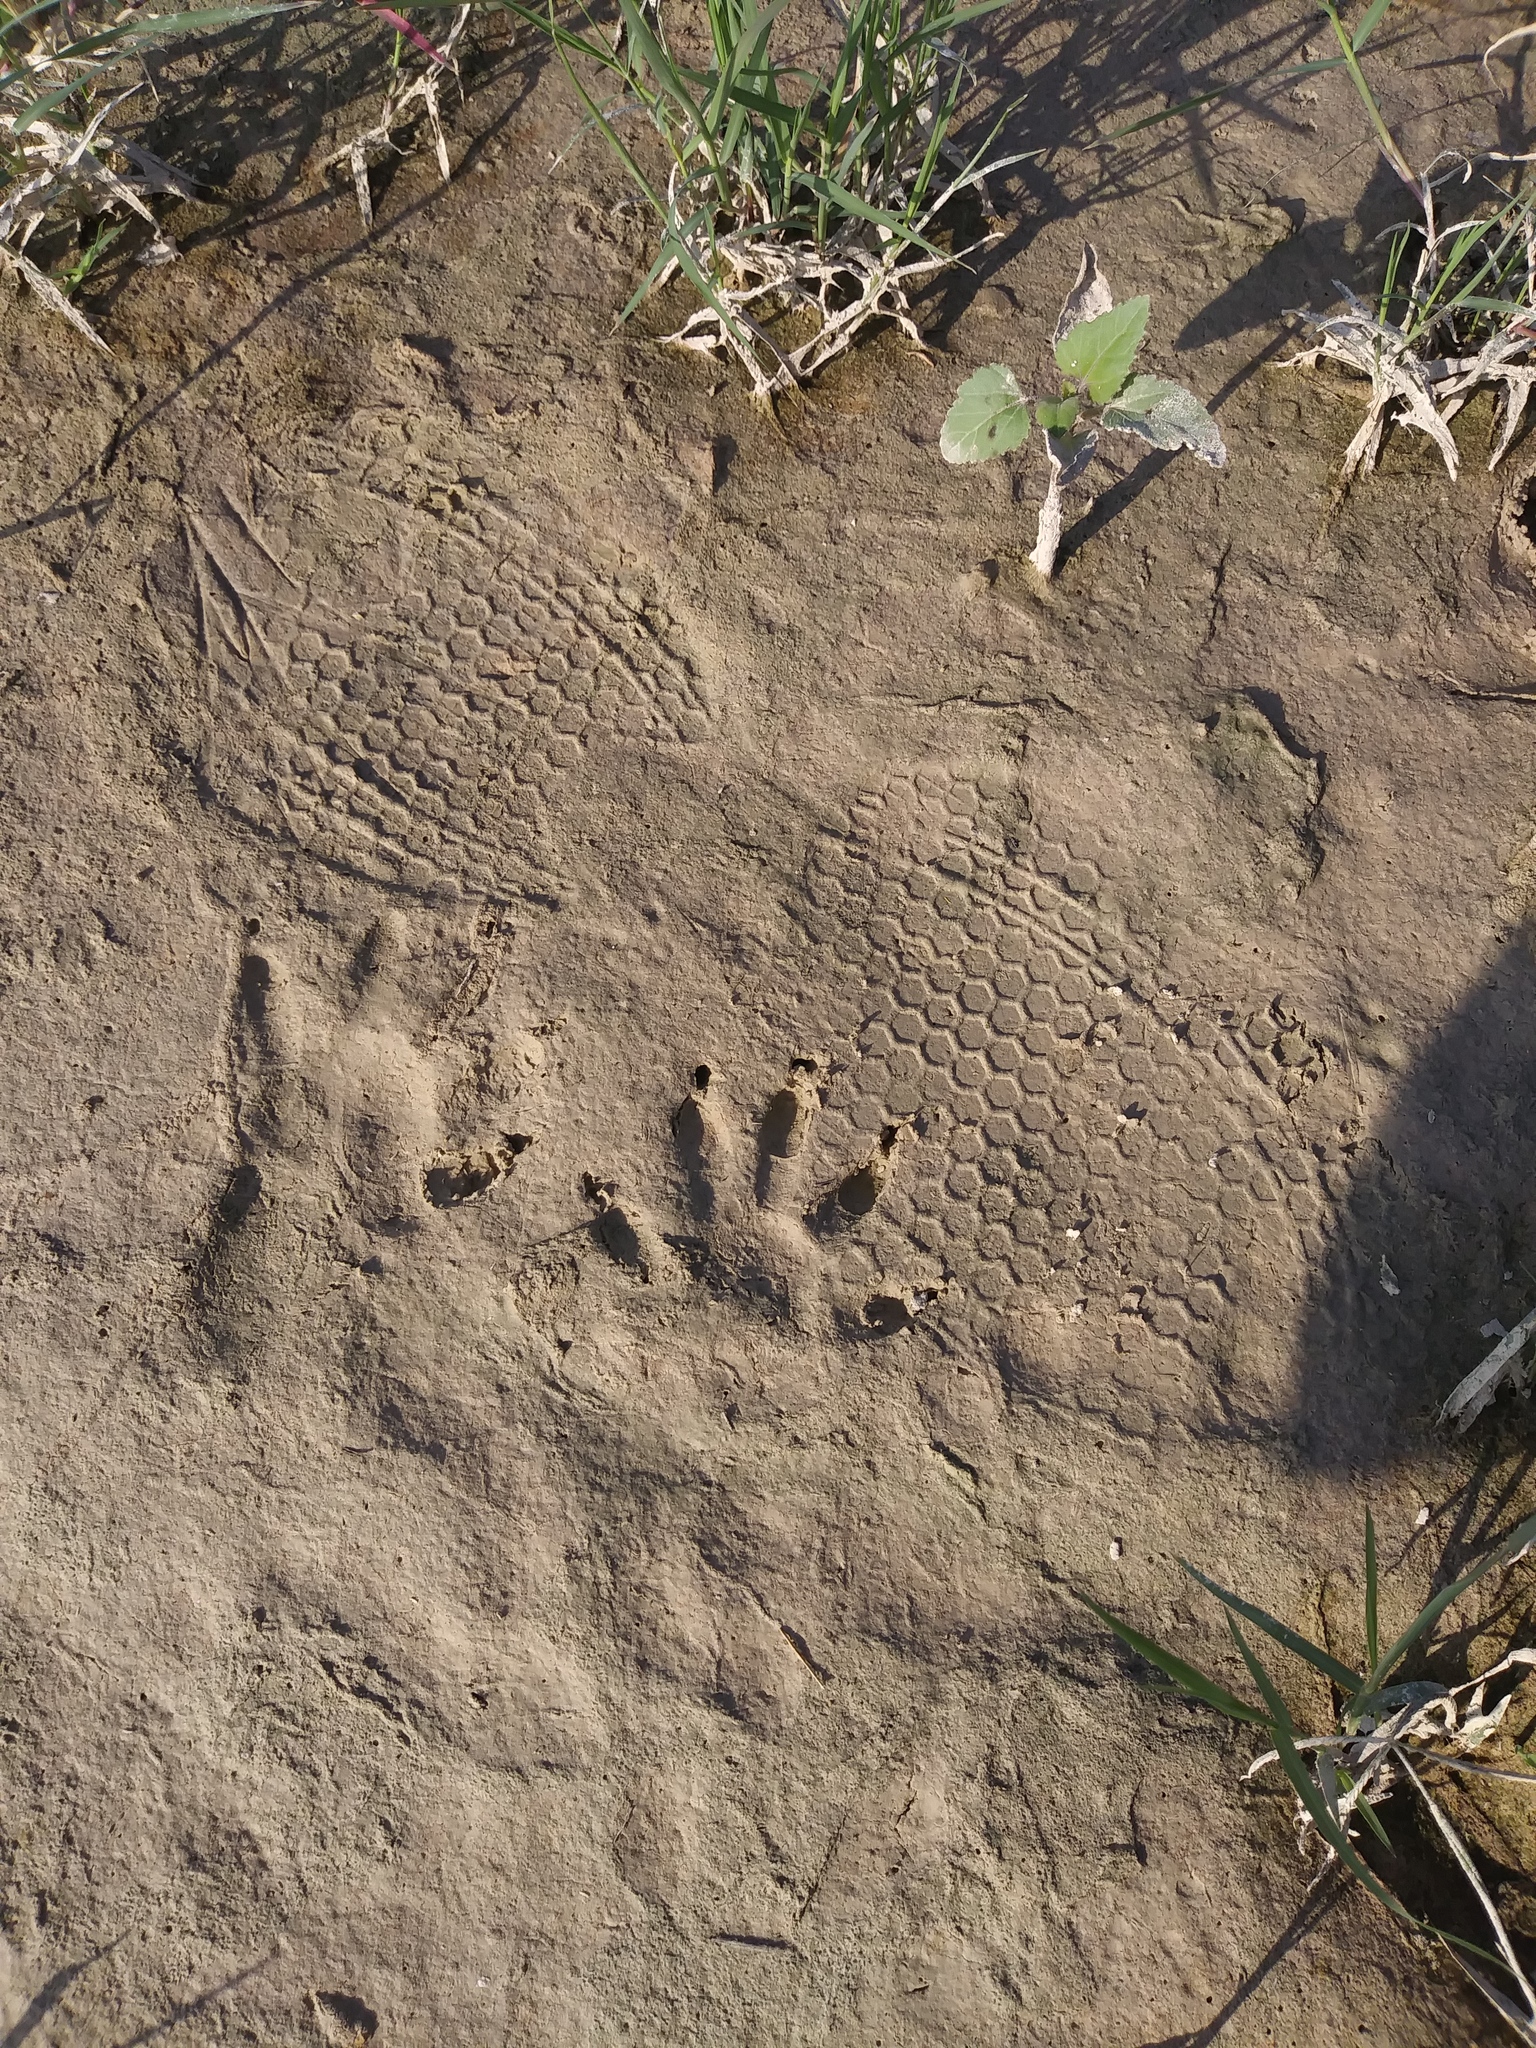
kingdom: Animalia
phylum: Chordata
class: Mammalia
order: Carnivora
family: Procyonidae
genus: Procyon
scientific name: Procyon lotor
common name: Raccoon
